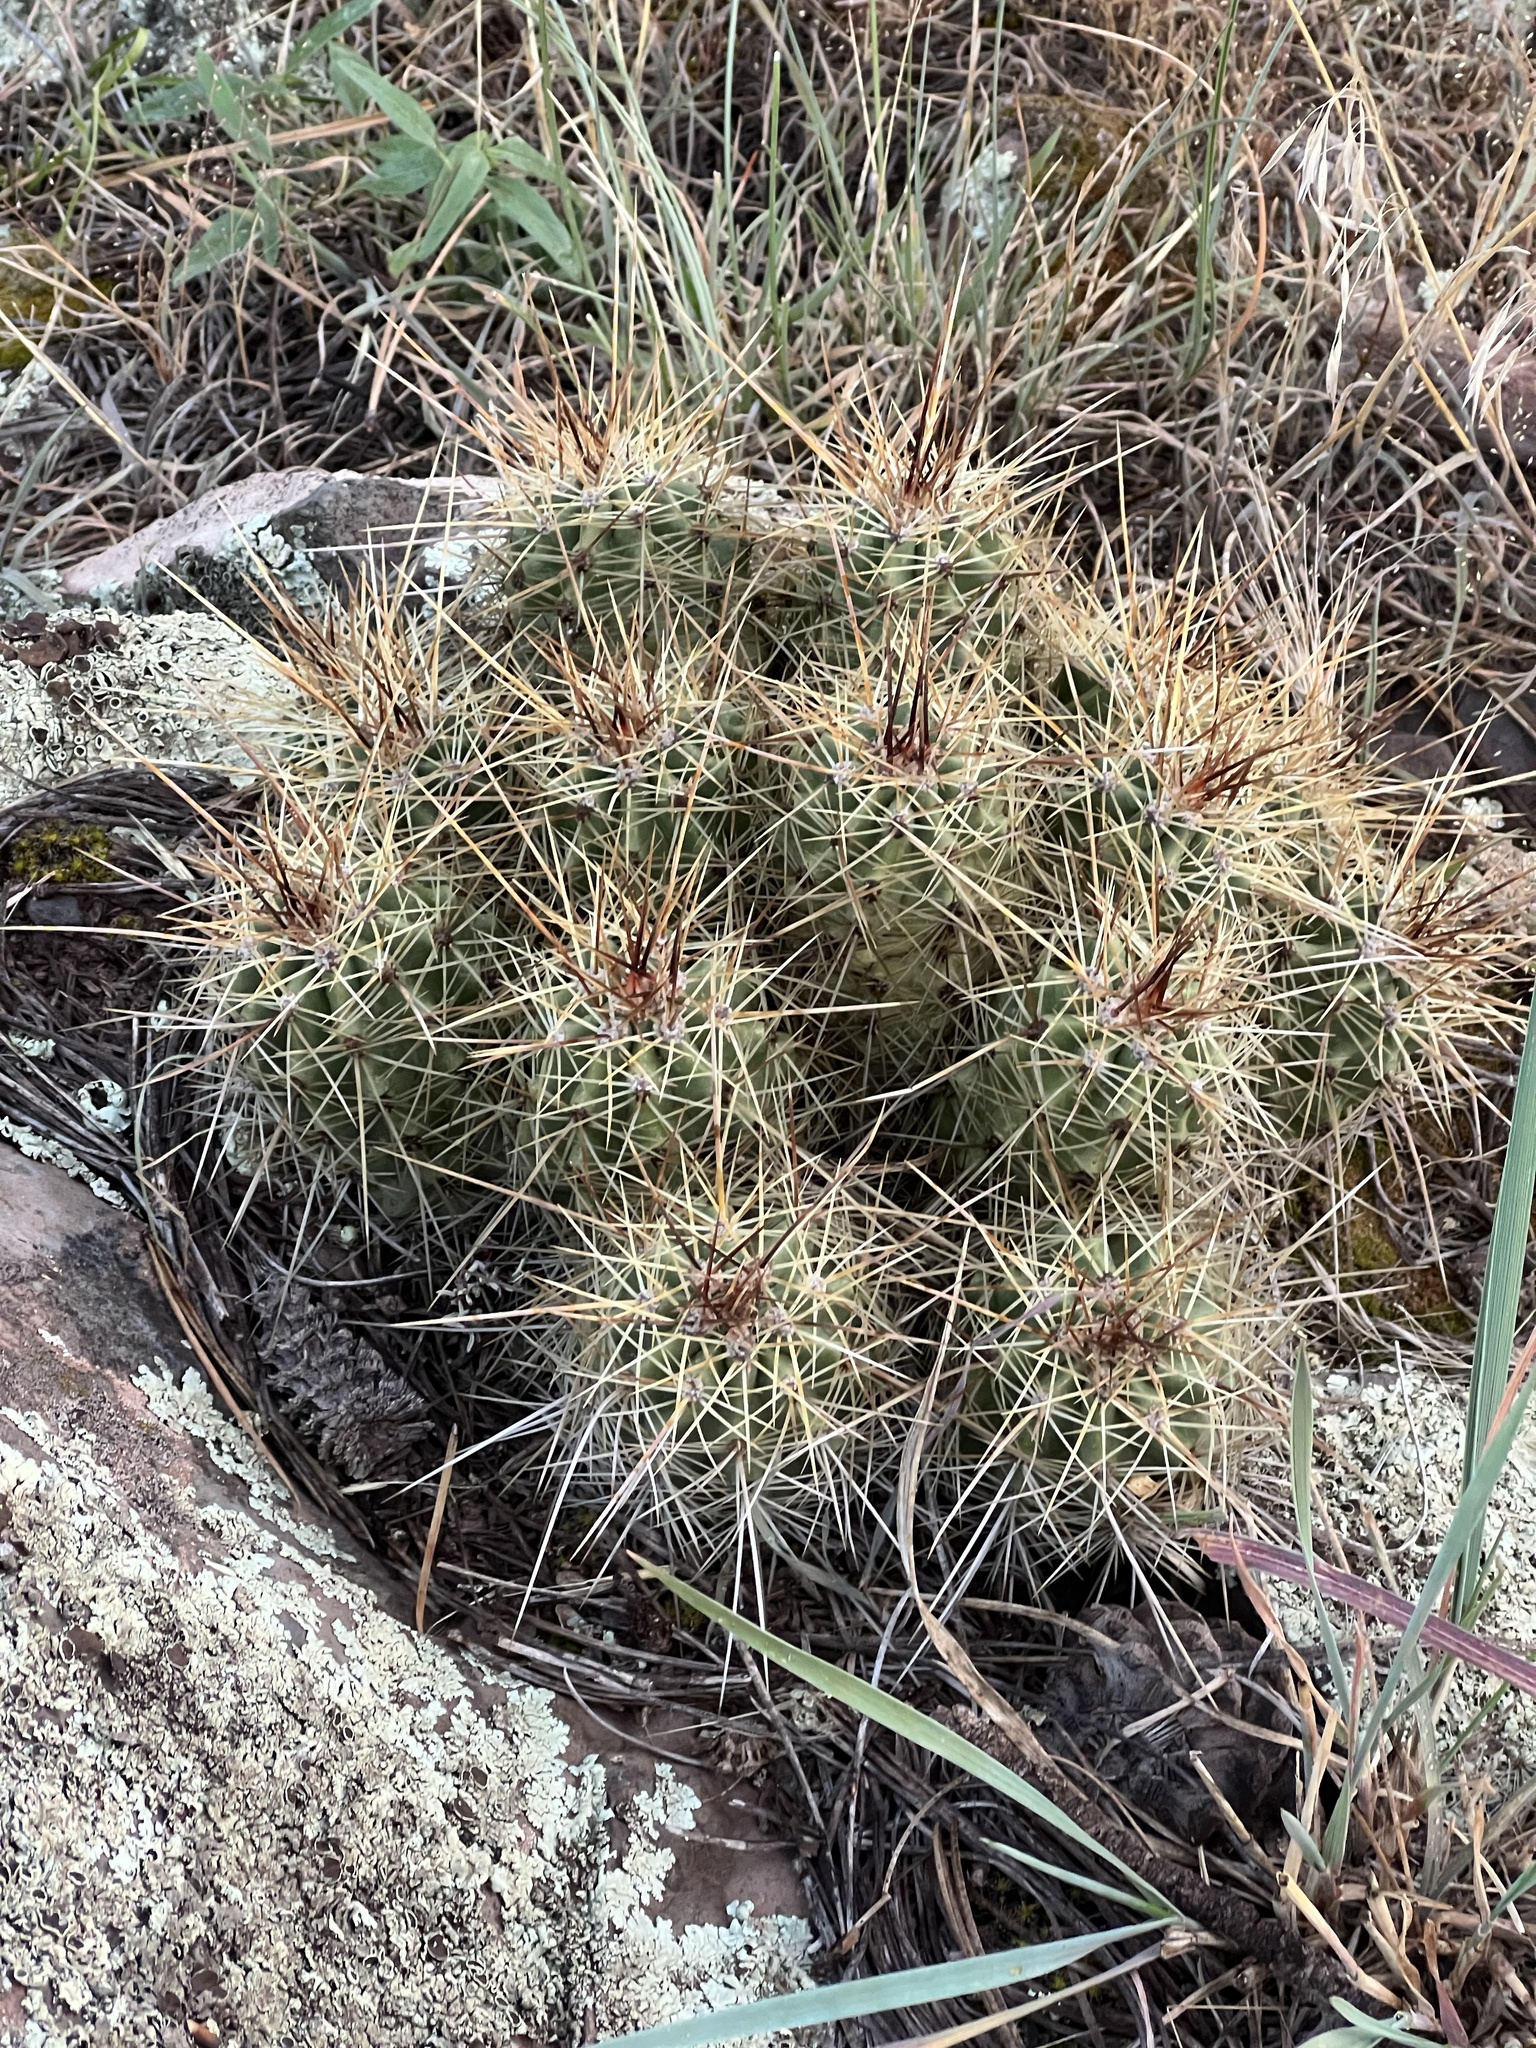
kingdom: Plantae
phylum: Tracheophyta
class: Magnoliopsida
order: Caryophyllales
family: Cactaceae
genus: Echinocereus
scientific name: Echinocereus bakeri
